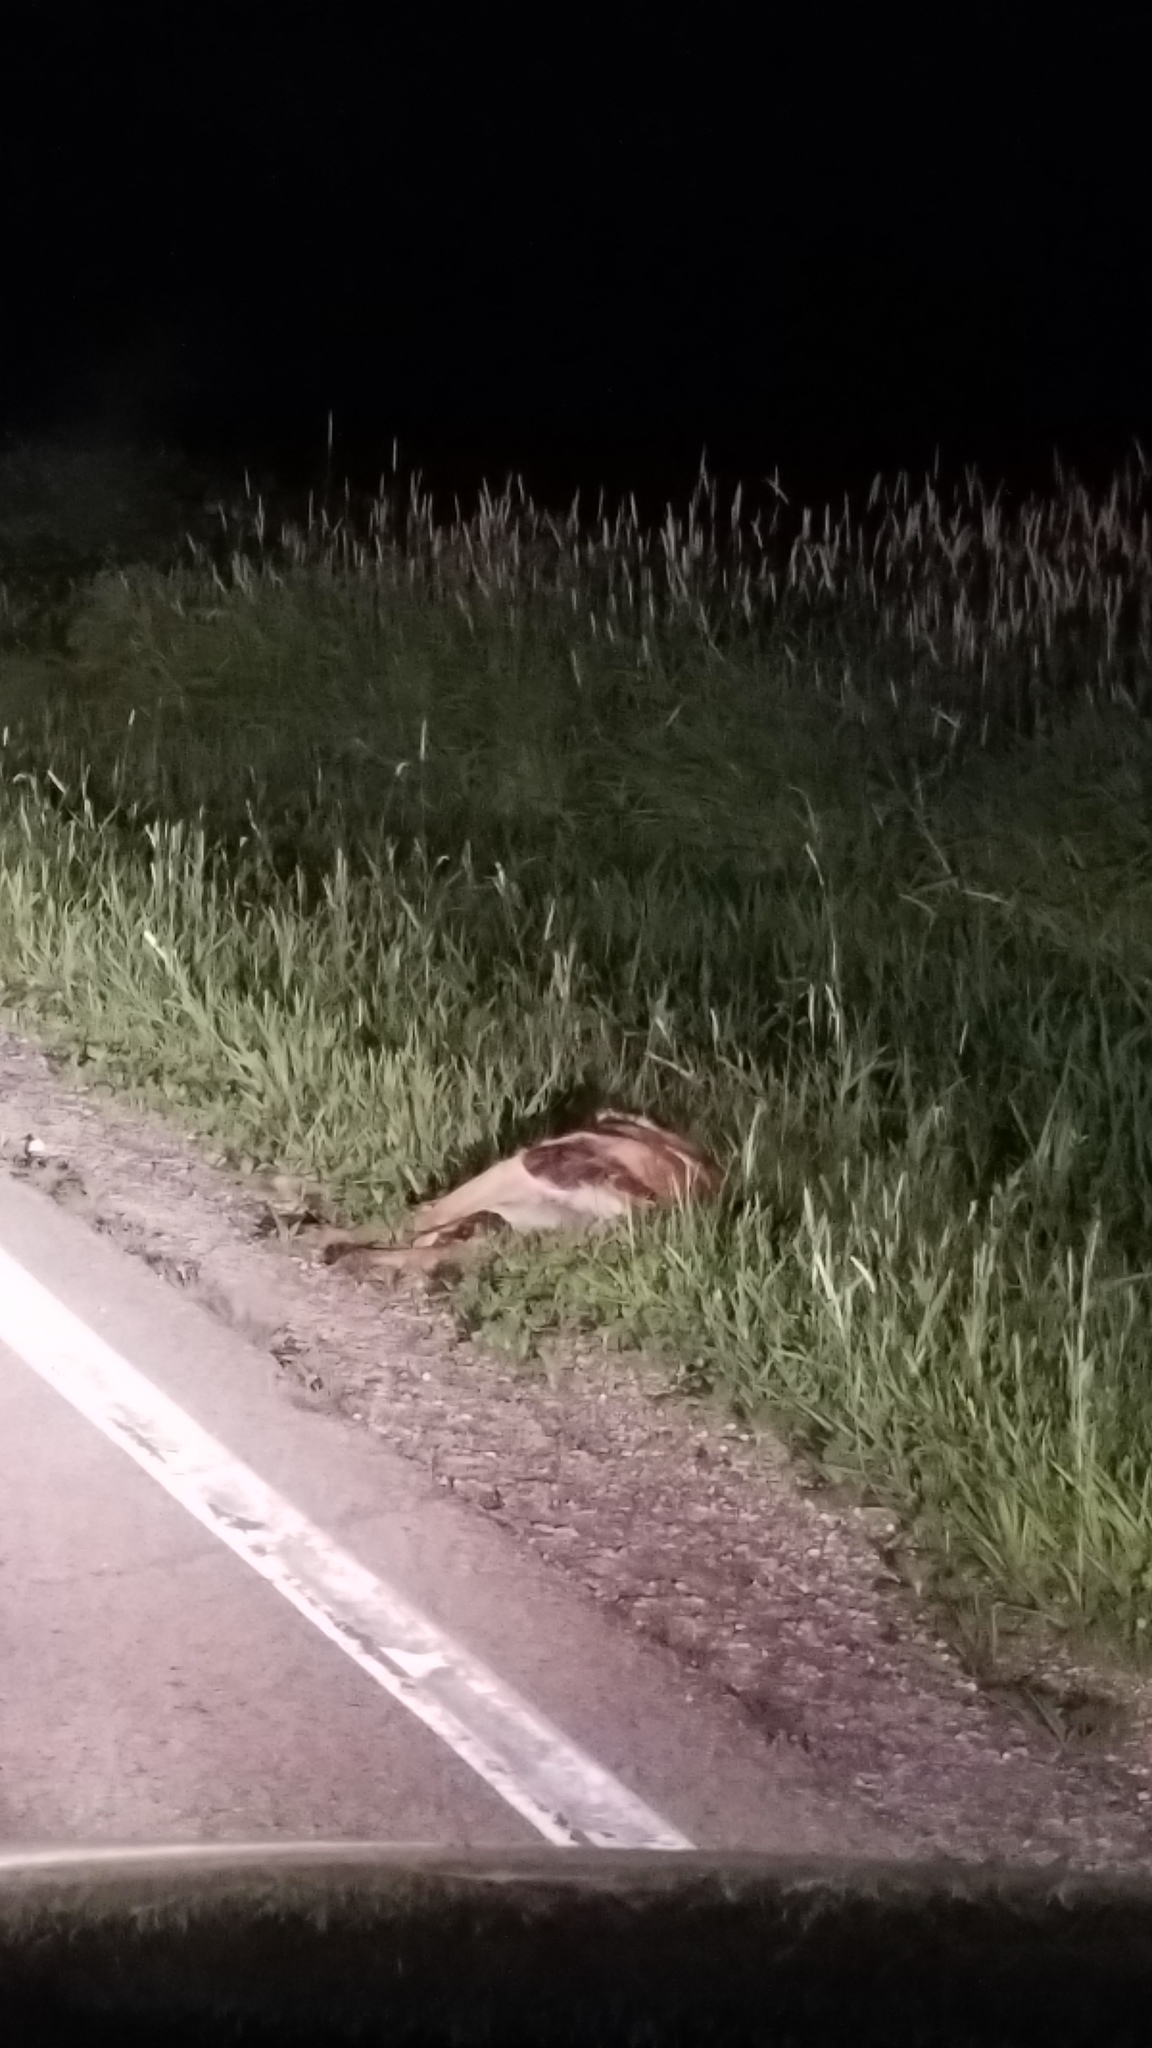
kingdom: Animalia
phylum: Chordata
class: Mammalia
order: Artiodactyla
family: Cervidae
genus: Odocoileus
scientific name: Odocoileus virginianus
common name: White-tailed deer
